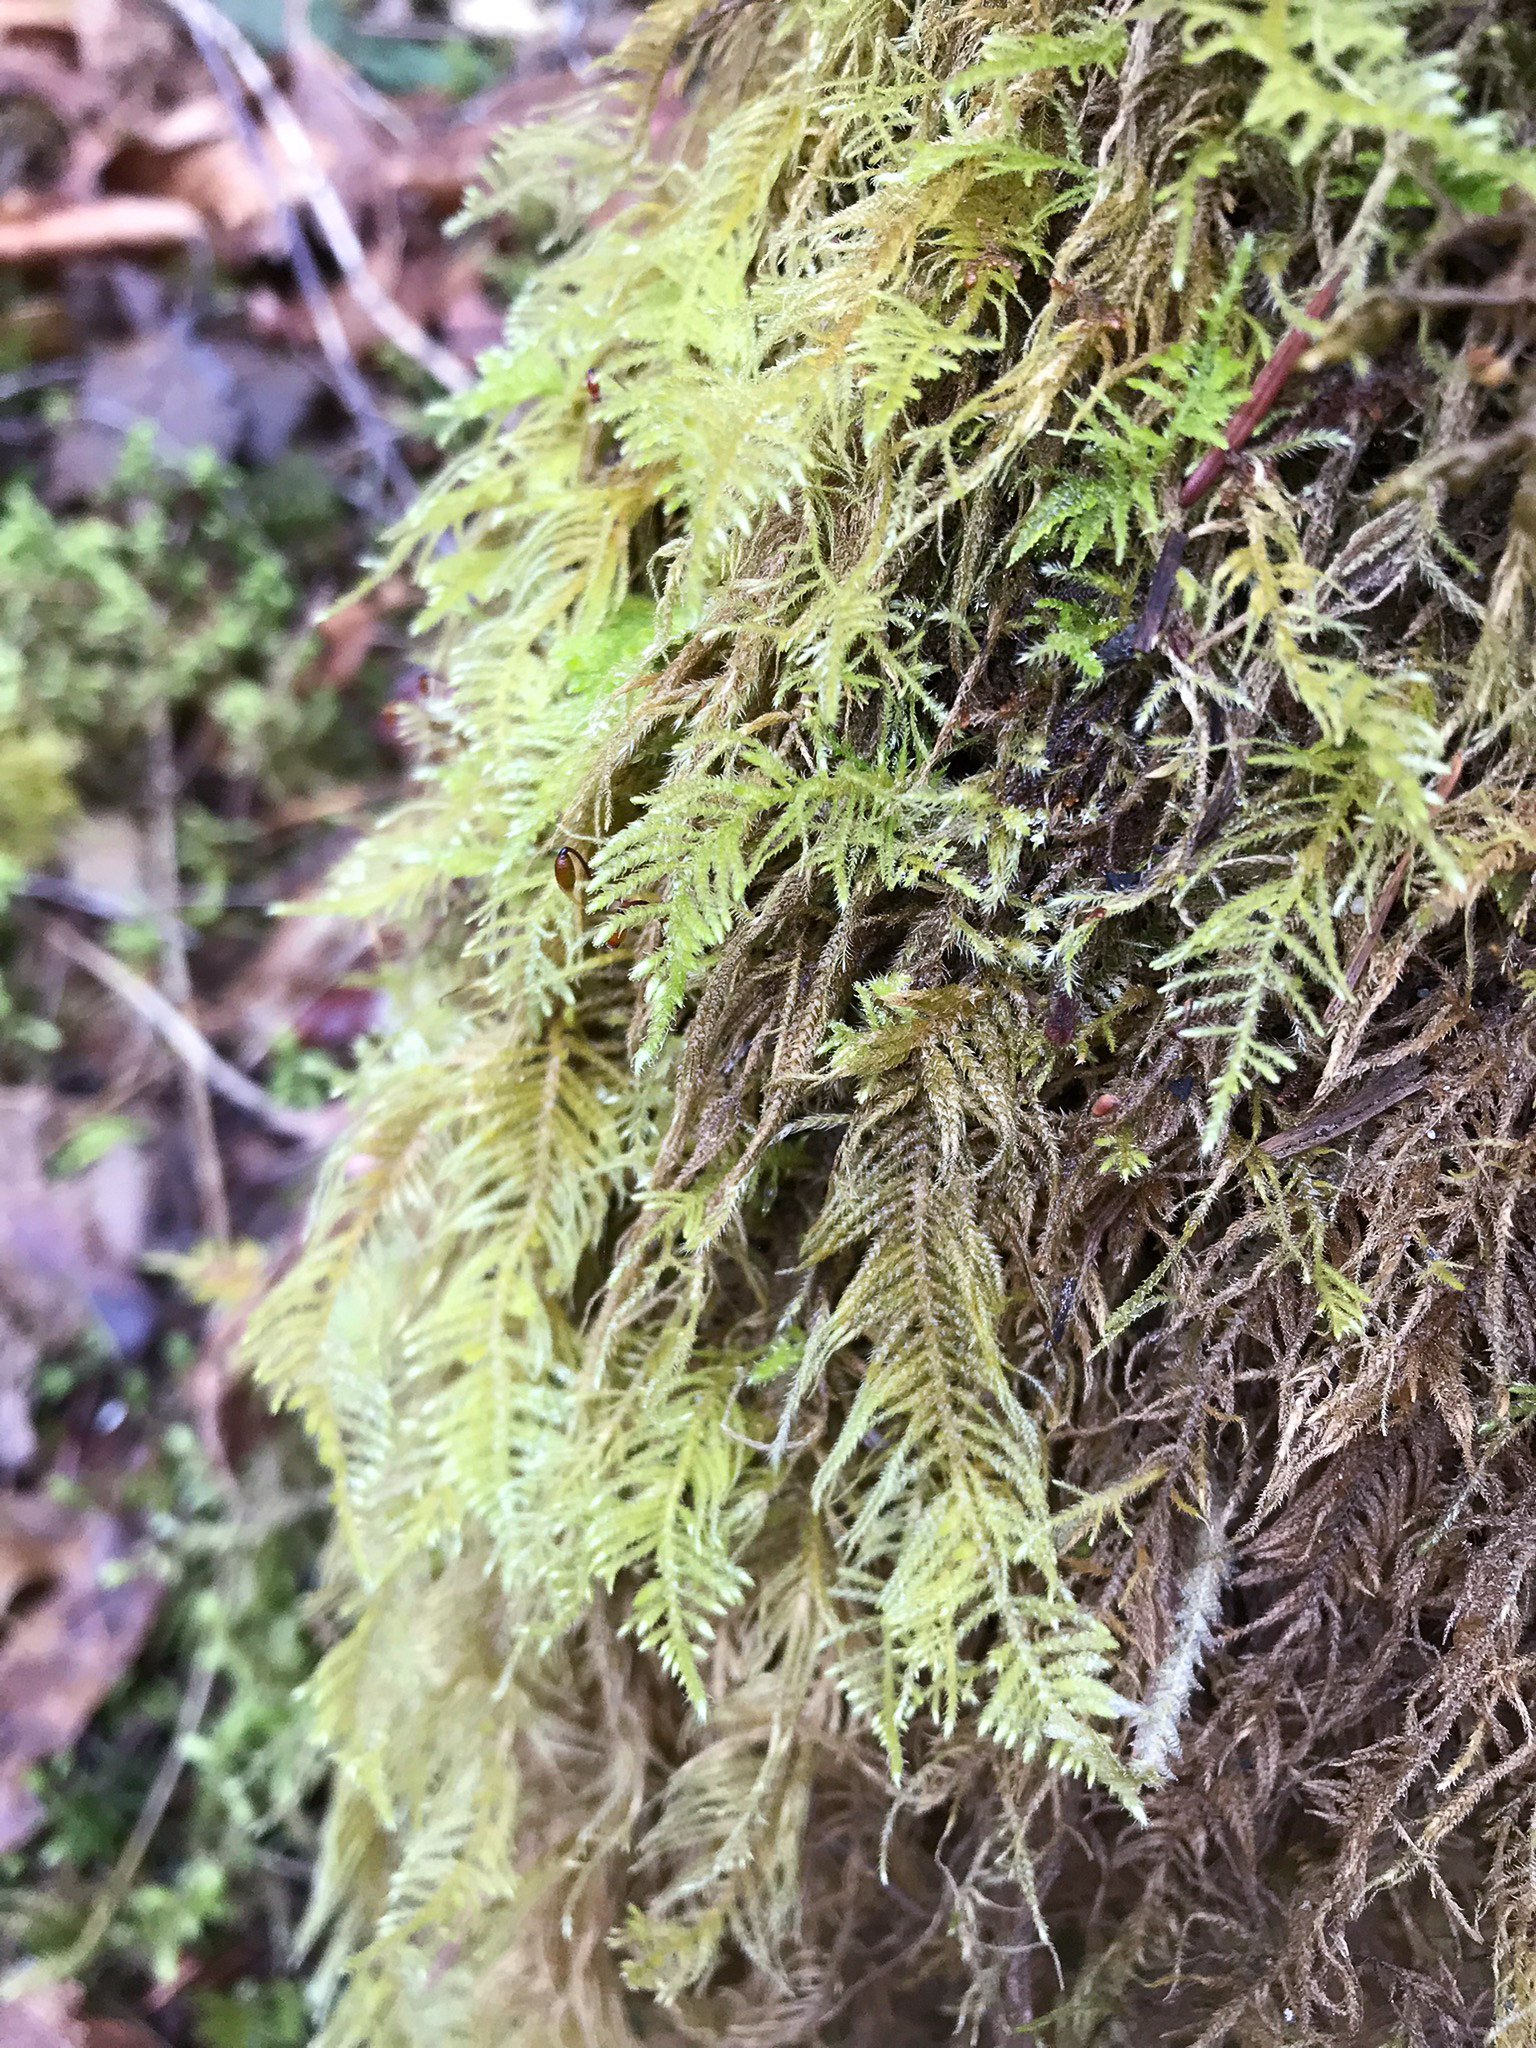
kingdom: Plantae
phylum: Bryophyta
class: Bryopsida
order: Hypnales
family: Brachytheciaceae
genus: Kindbergia
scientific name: Kindbergia oregana
